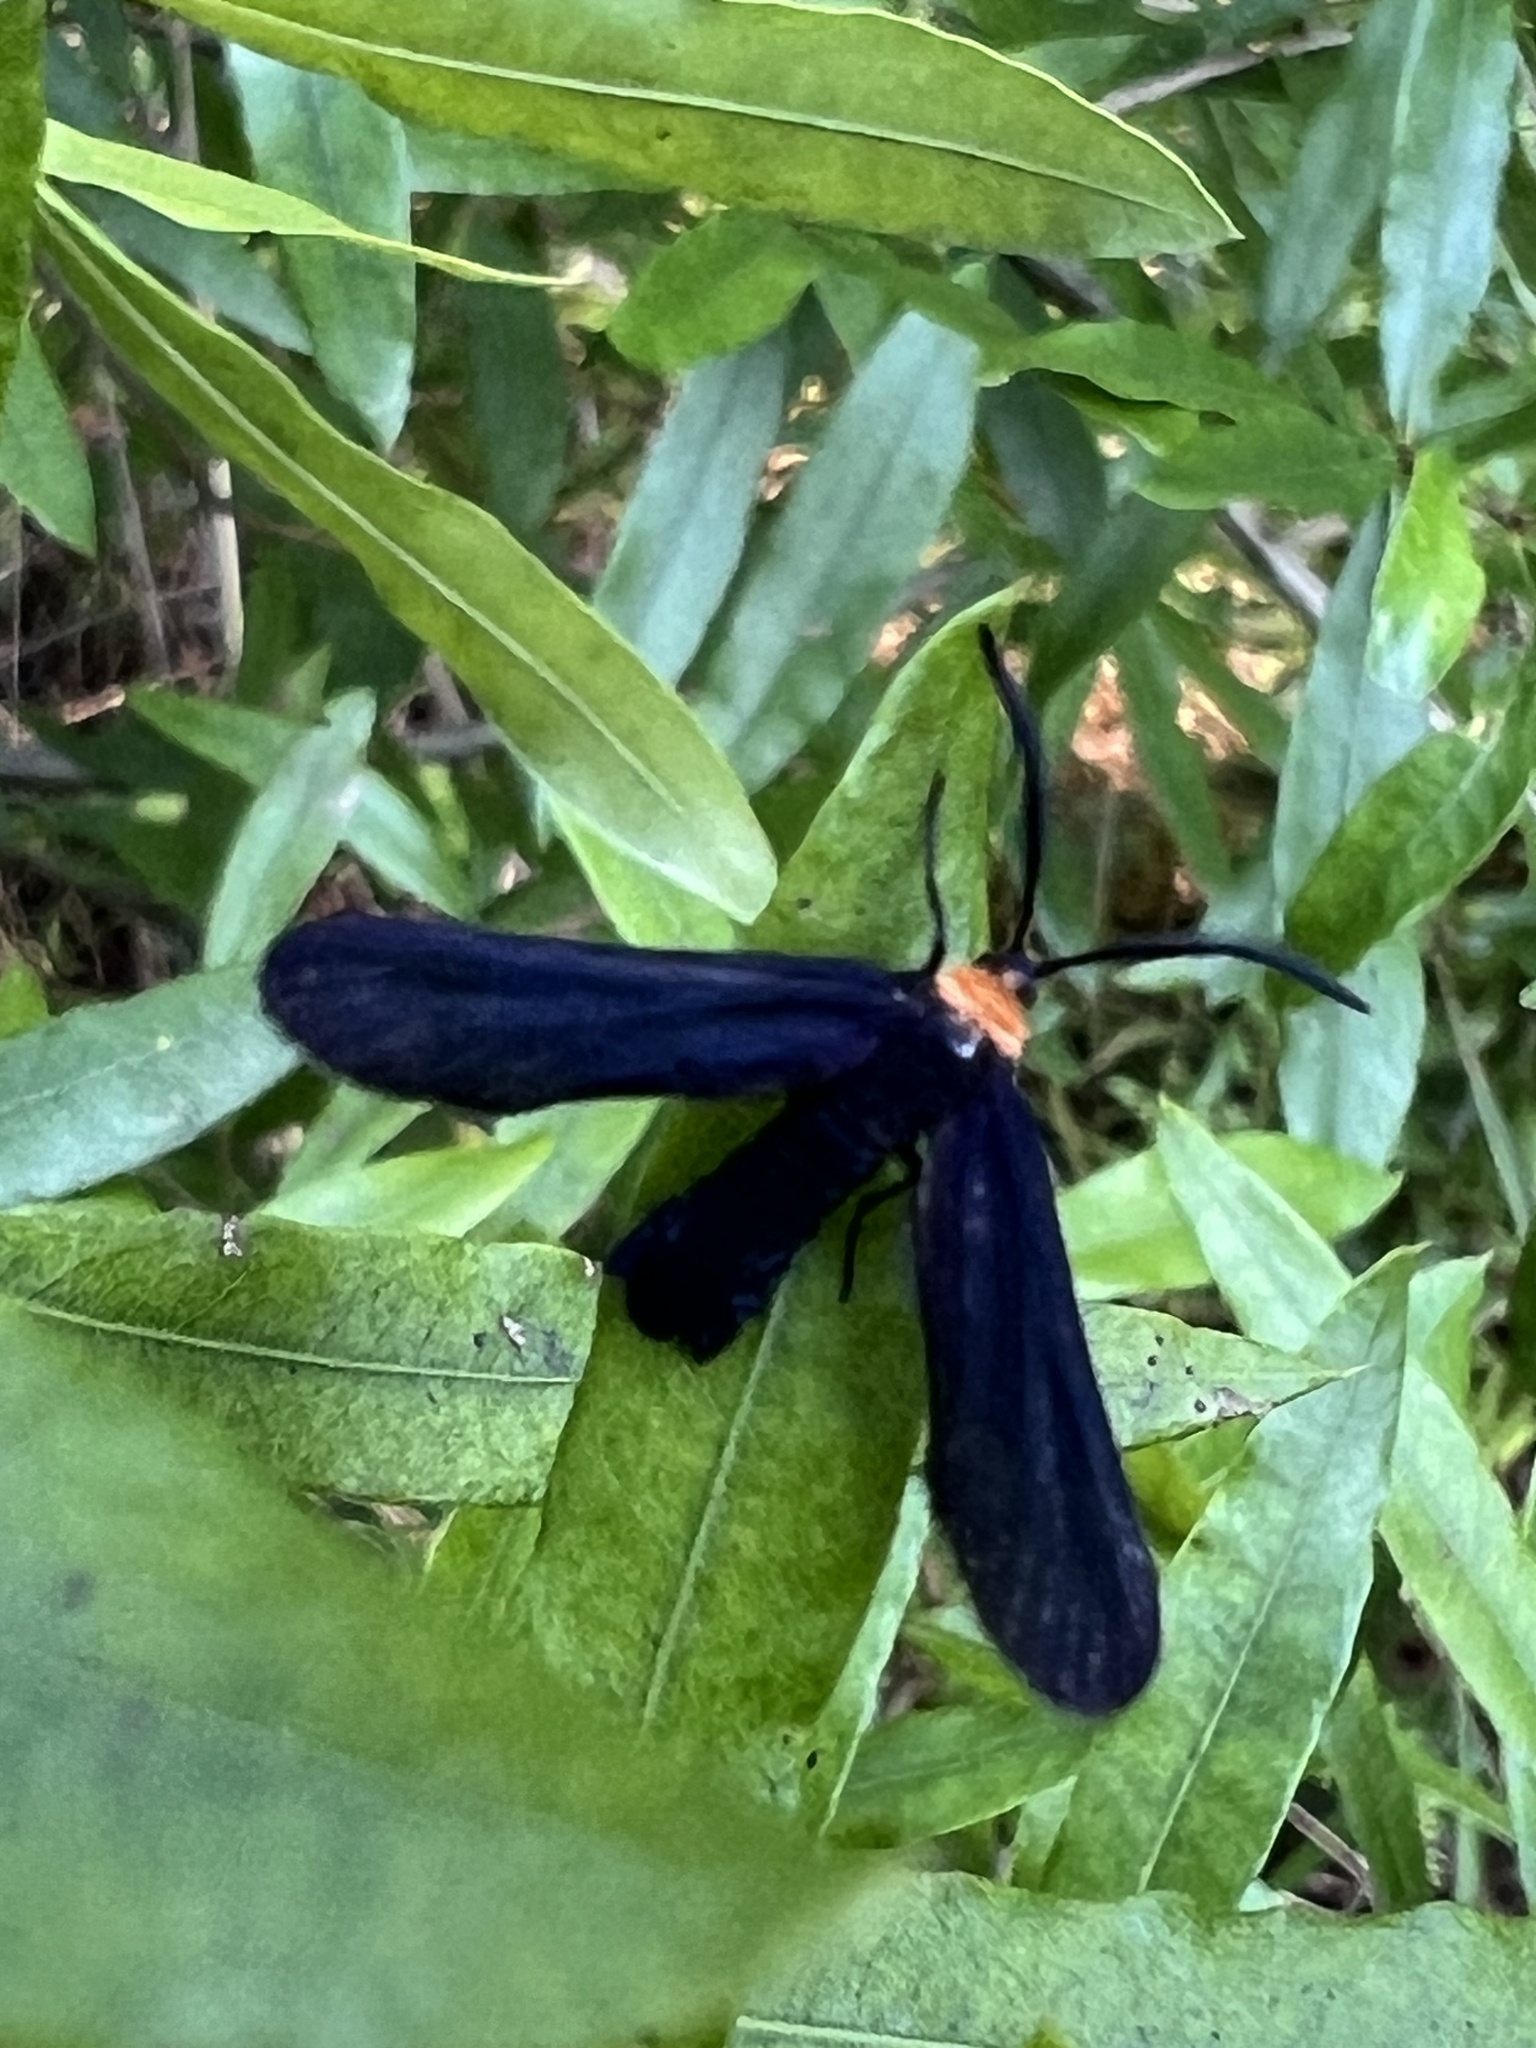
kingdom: Animalia
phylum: Arthropoda
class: Insecta
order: Lepidoptera
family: Zygaenidae
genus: Harrisina
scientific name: Harrisina americana
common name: Grapeleaf skeletonizer moth
